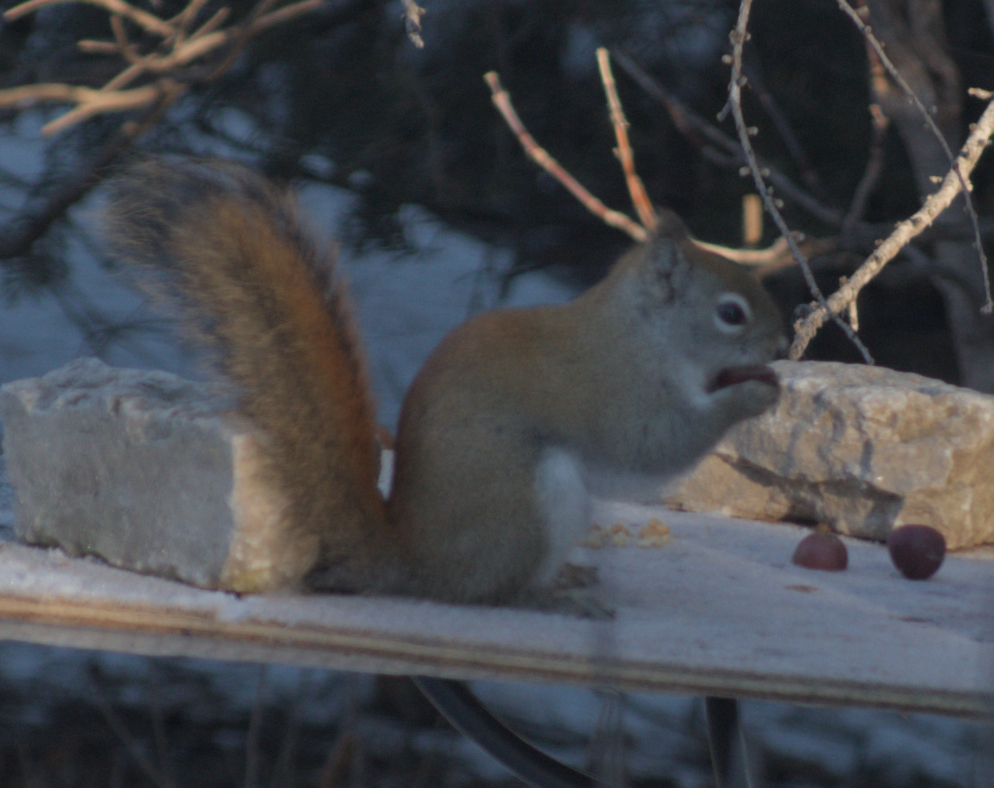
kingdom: Animalia
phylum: Chordata
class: Mammalia
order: Rodentia
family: Sciuridae
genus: Tamiasciurus
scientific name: Tamiasciurus hudsonicus
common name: Red squirrel
